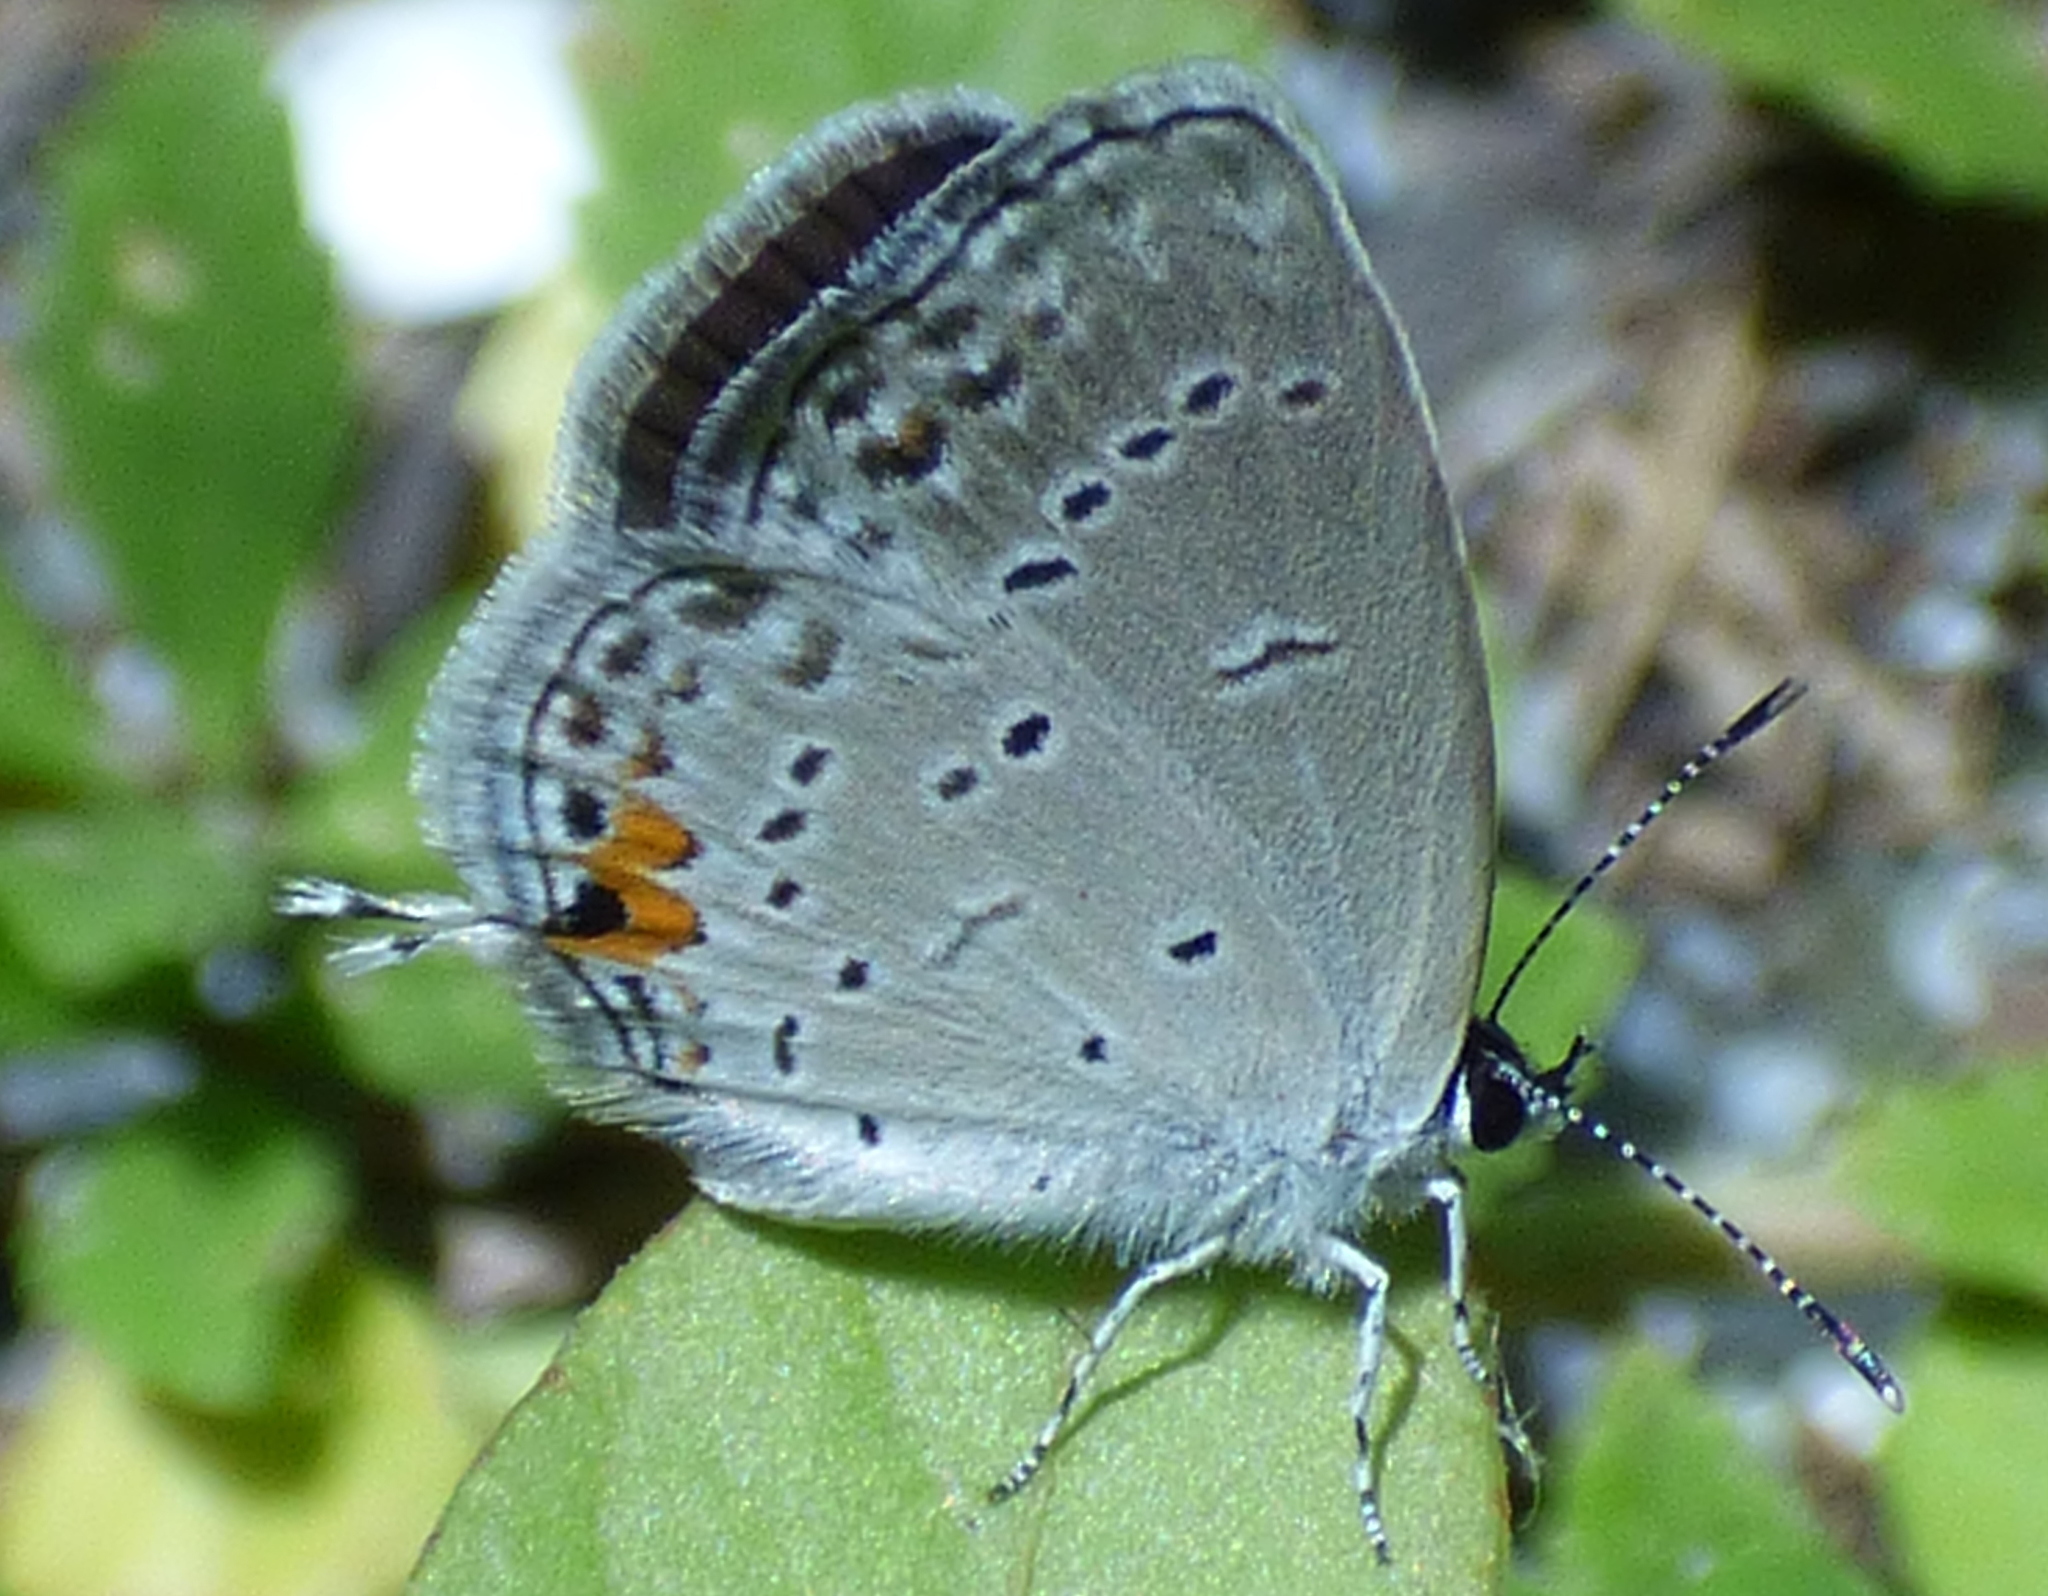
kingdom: Animalia
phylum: Arthropoda
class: Insecta
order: Lepidoptera
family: Lycaenidae
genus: Elkalyce
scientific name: Elkalyce comyntas
